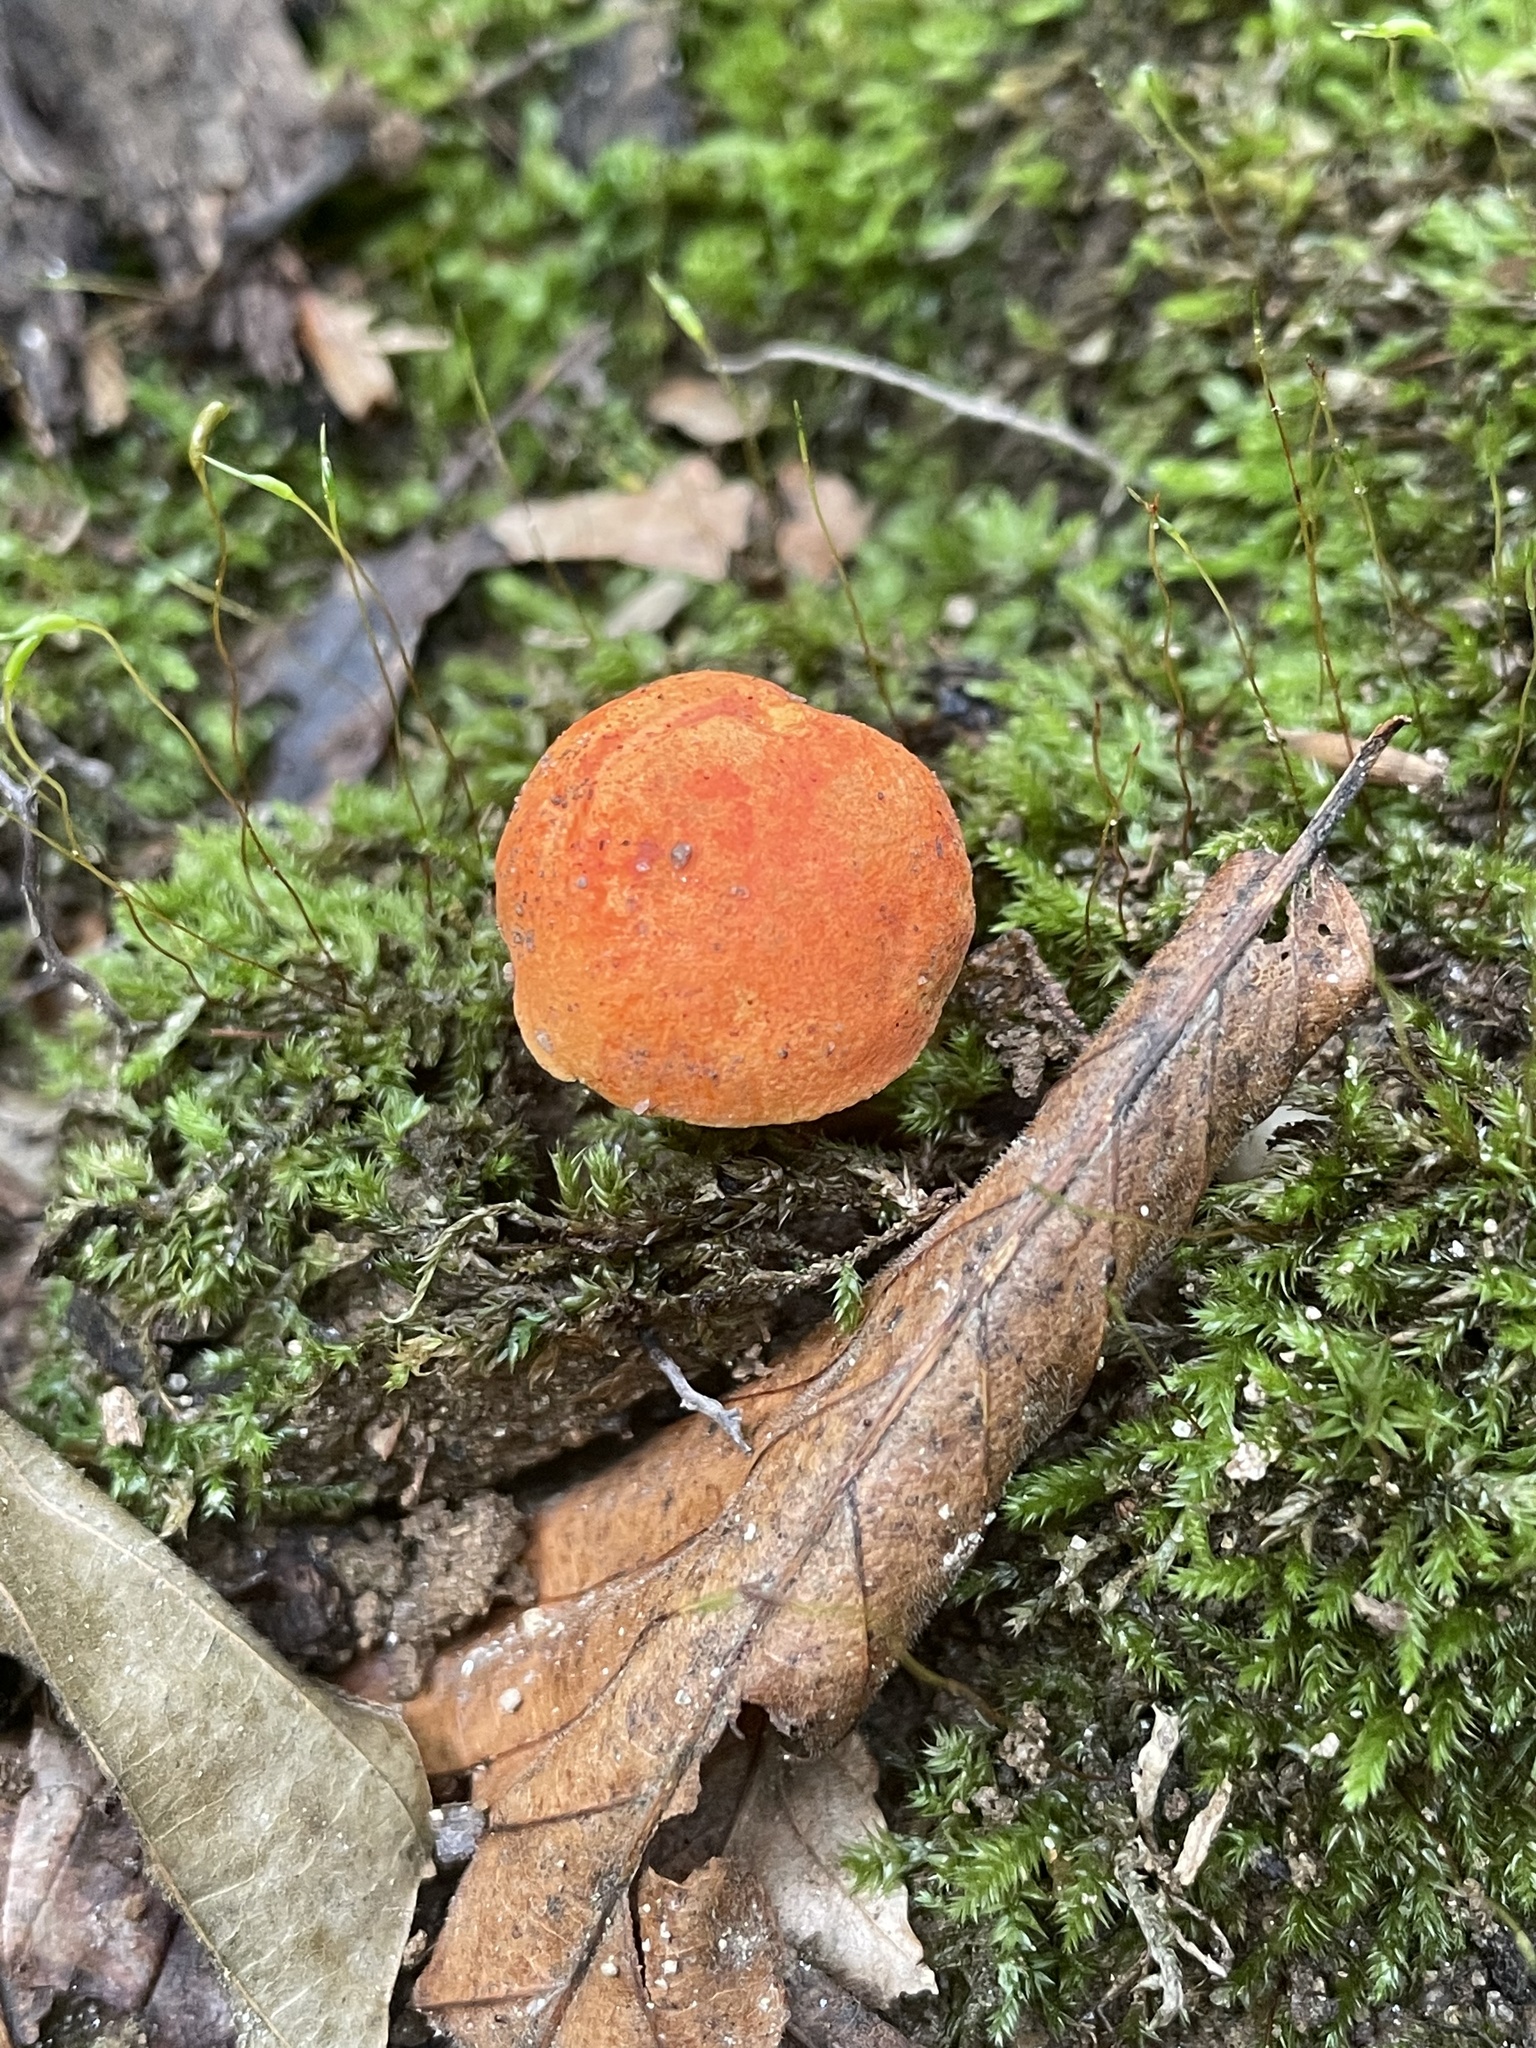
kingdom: Fungi
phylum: Basidiomycota
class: Agaricomycetes
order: Boletales
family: Boletaceae
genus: Tylopilus
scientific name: Tylopilus balloui
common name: Burnt-orange bolete
